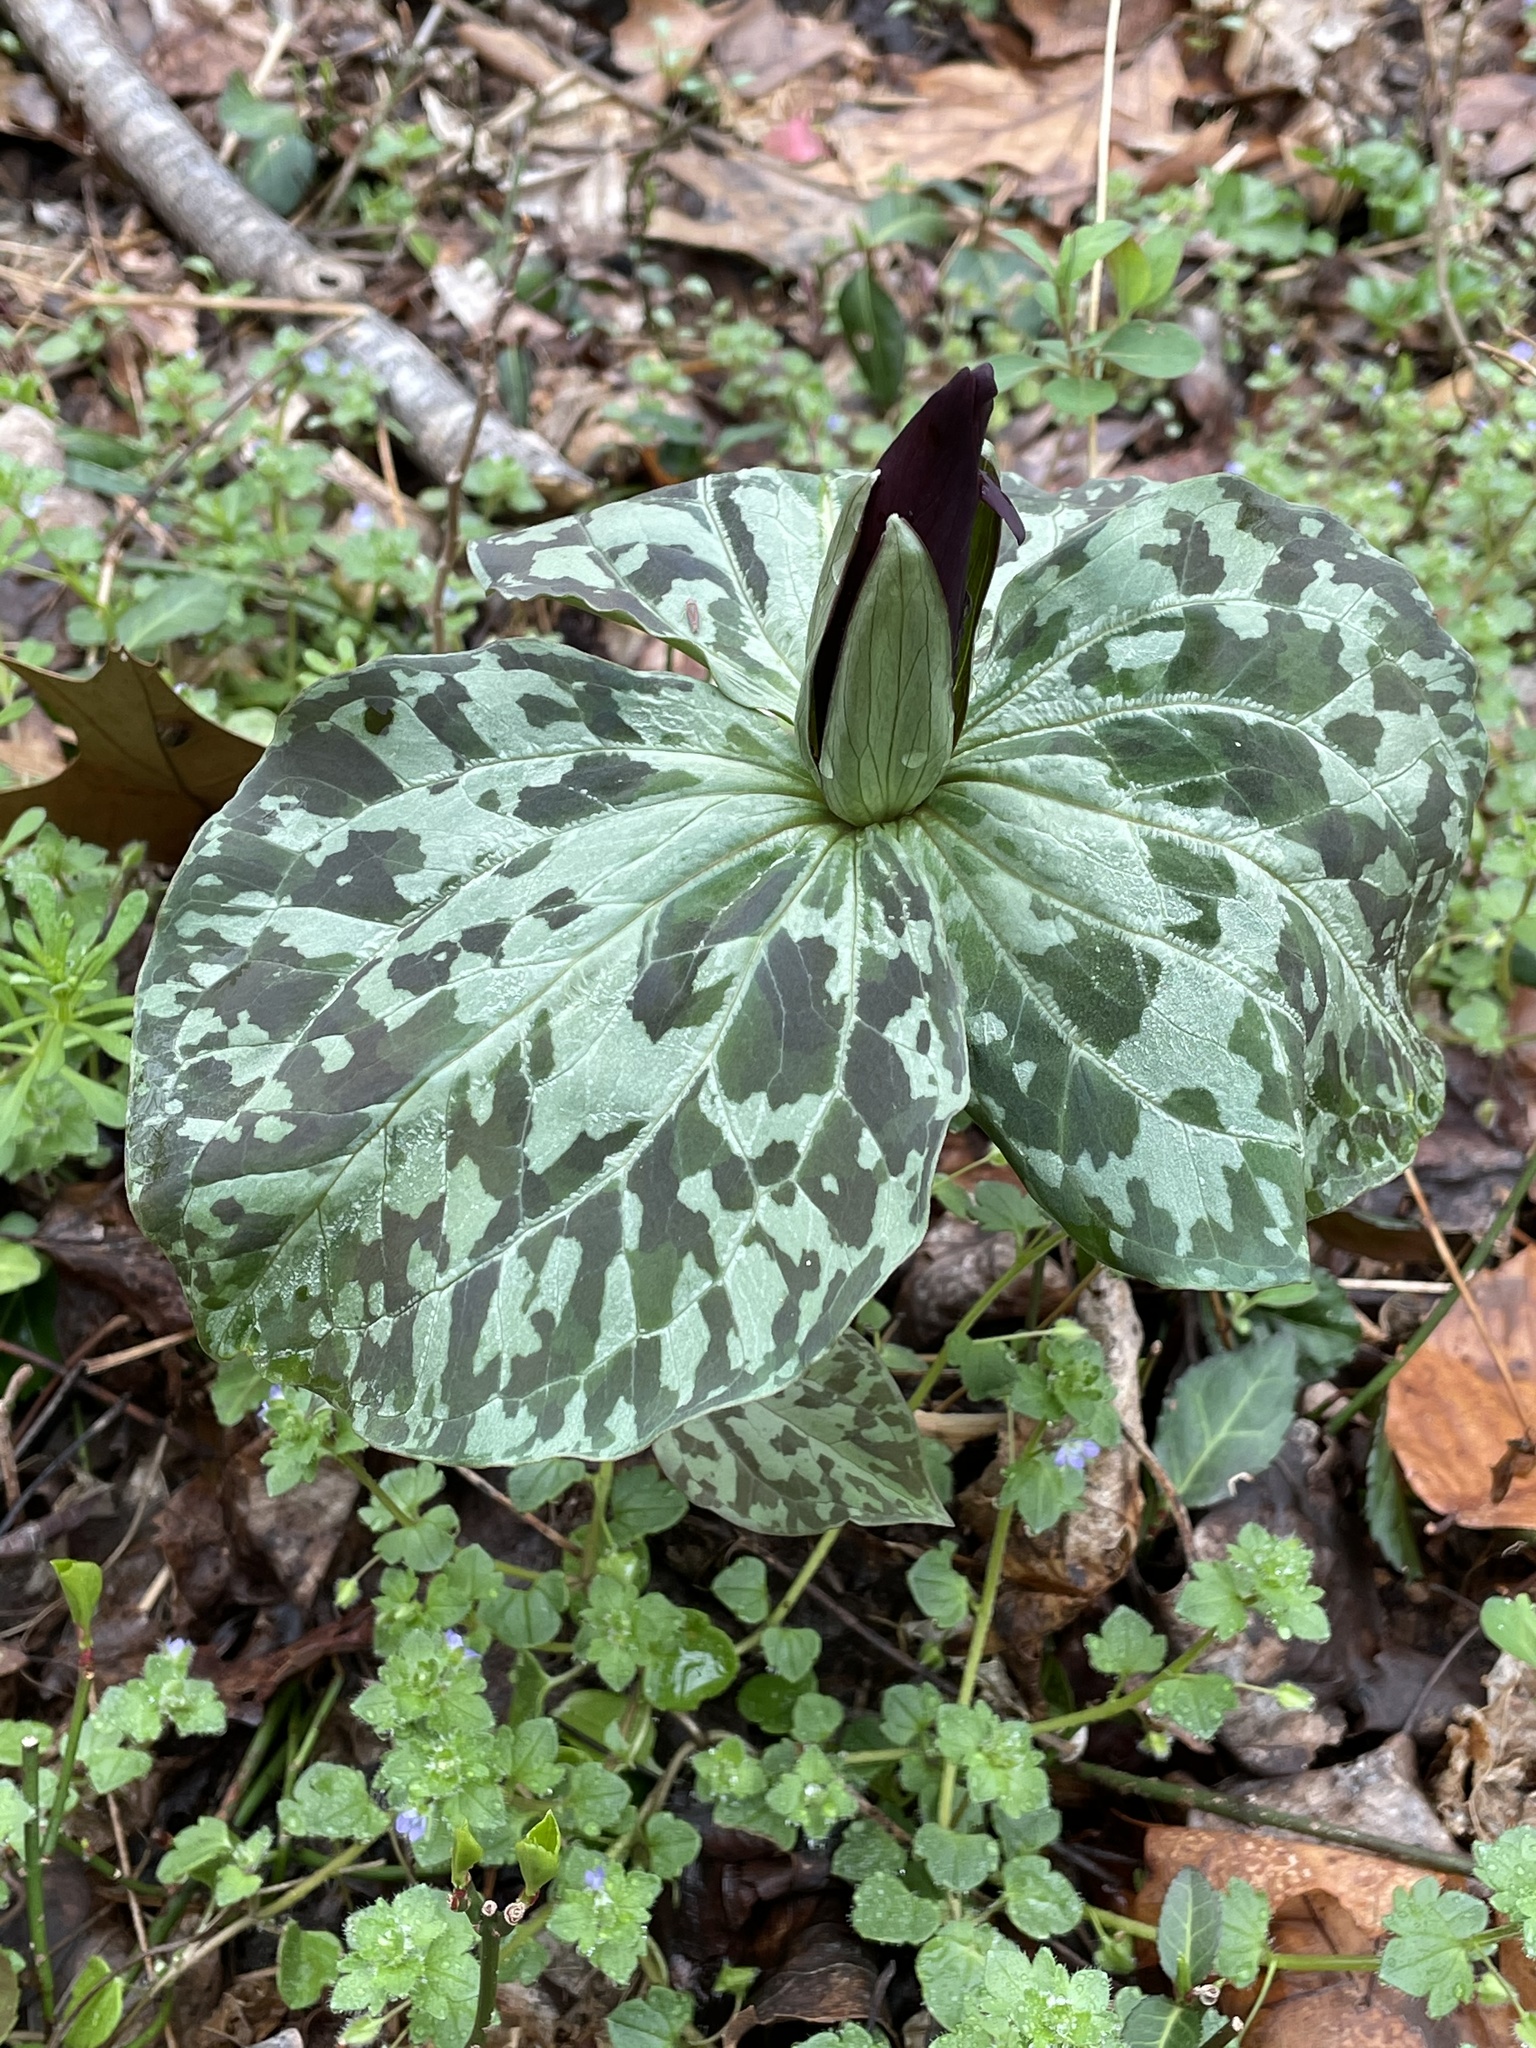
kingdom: Plantae
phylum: Tracheophyta
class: Liliopsida
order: Liliales
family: Melanthiaceae
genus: Trillium
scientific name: Trillium cuneatum
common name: Cuneate trillium
